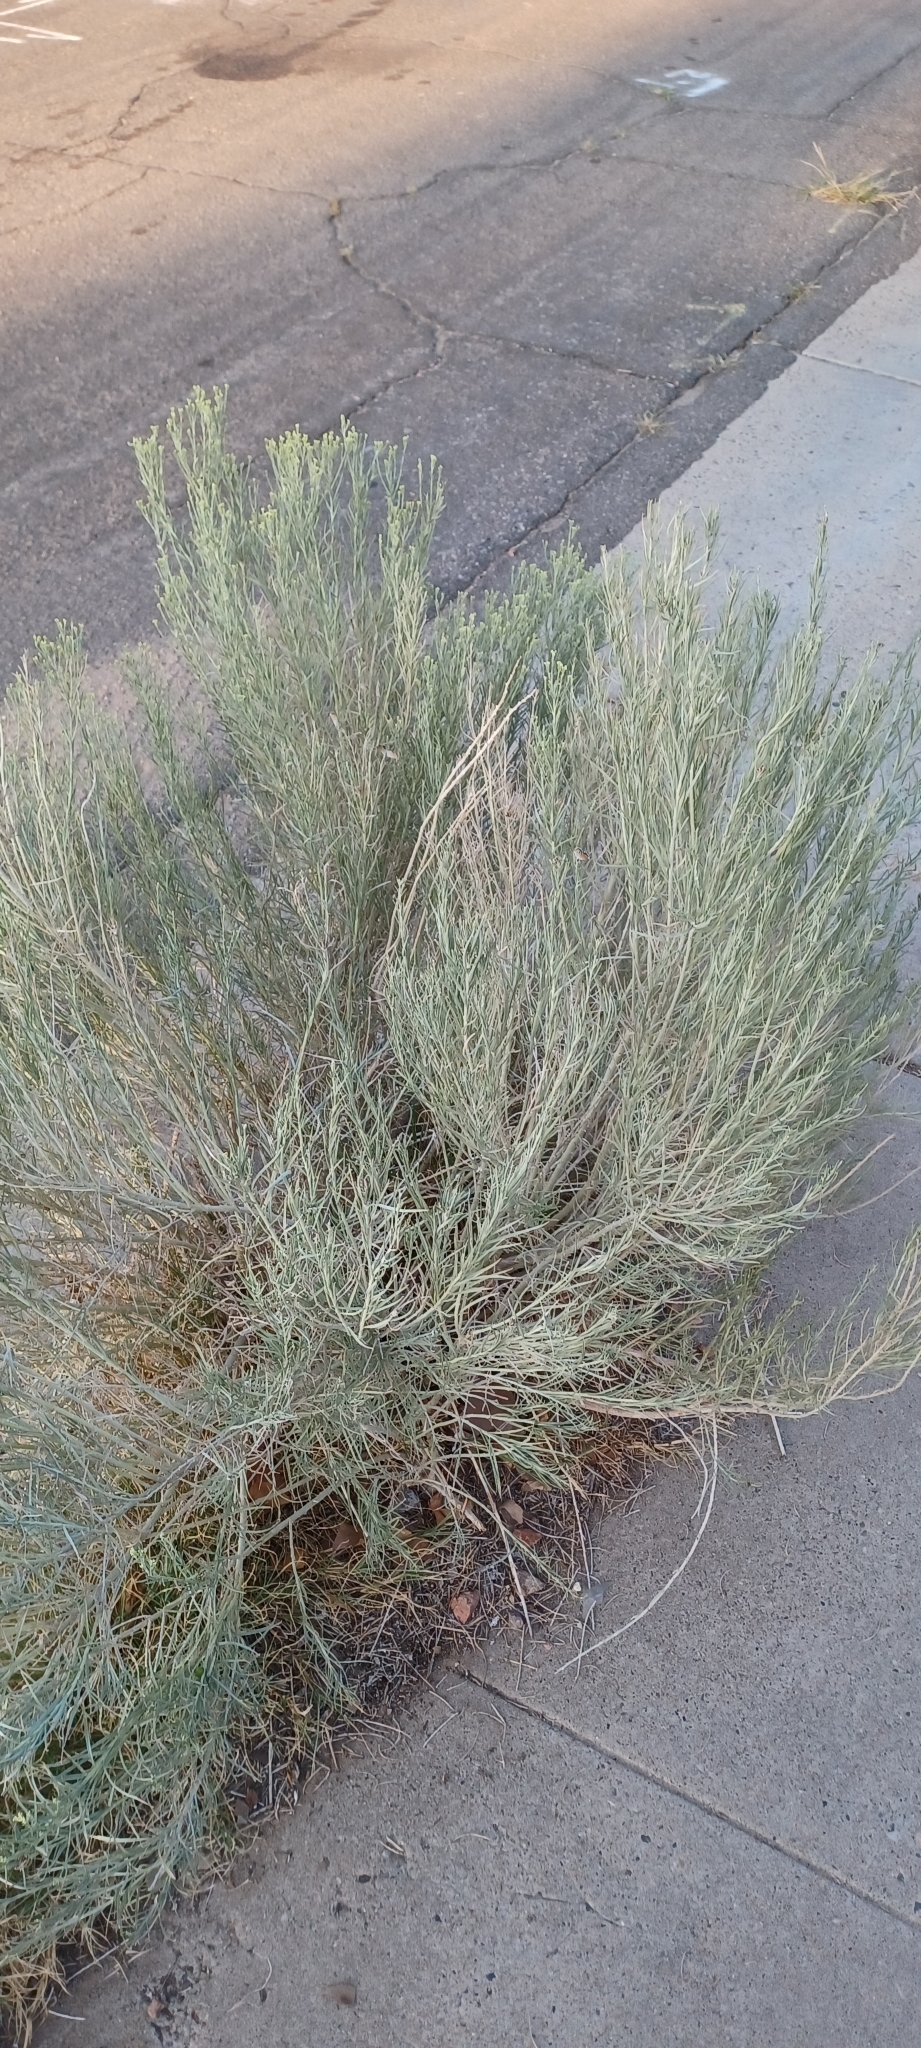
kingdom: Plantae
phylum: Tracheophyta
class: Magnoliopsida
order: Asterales
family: Asteraceae
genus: Ericameria
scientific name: Ericameria nauseosa
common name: Rubber rabbitbrush
